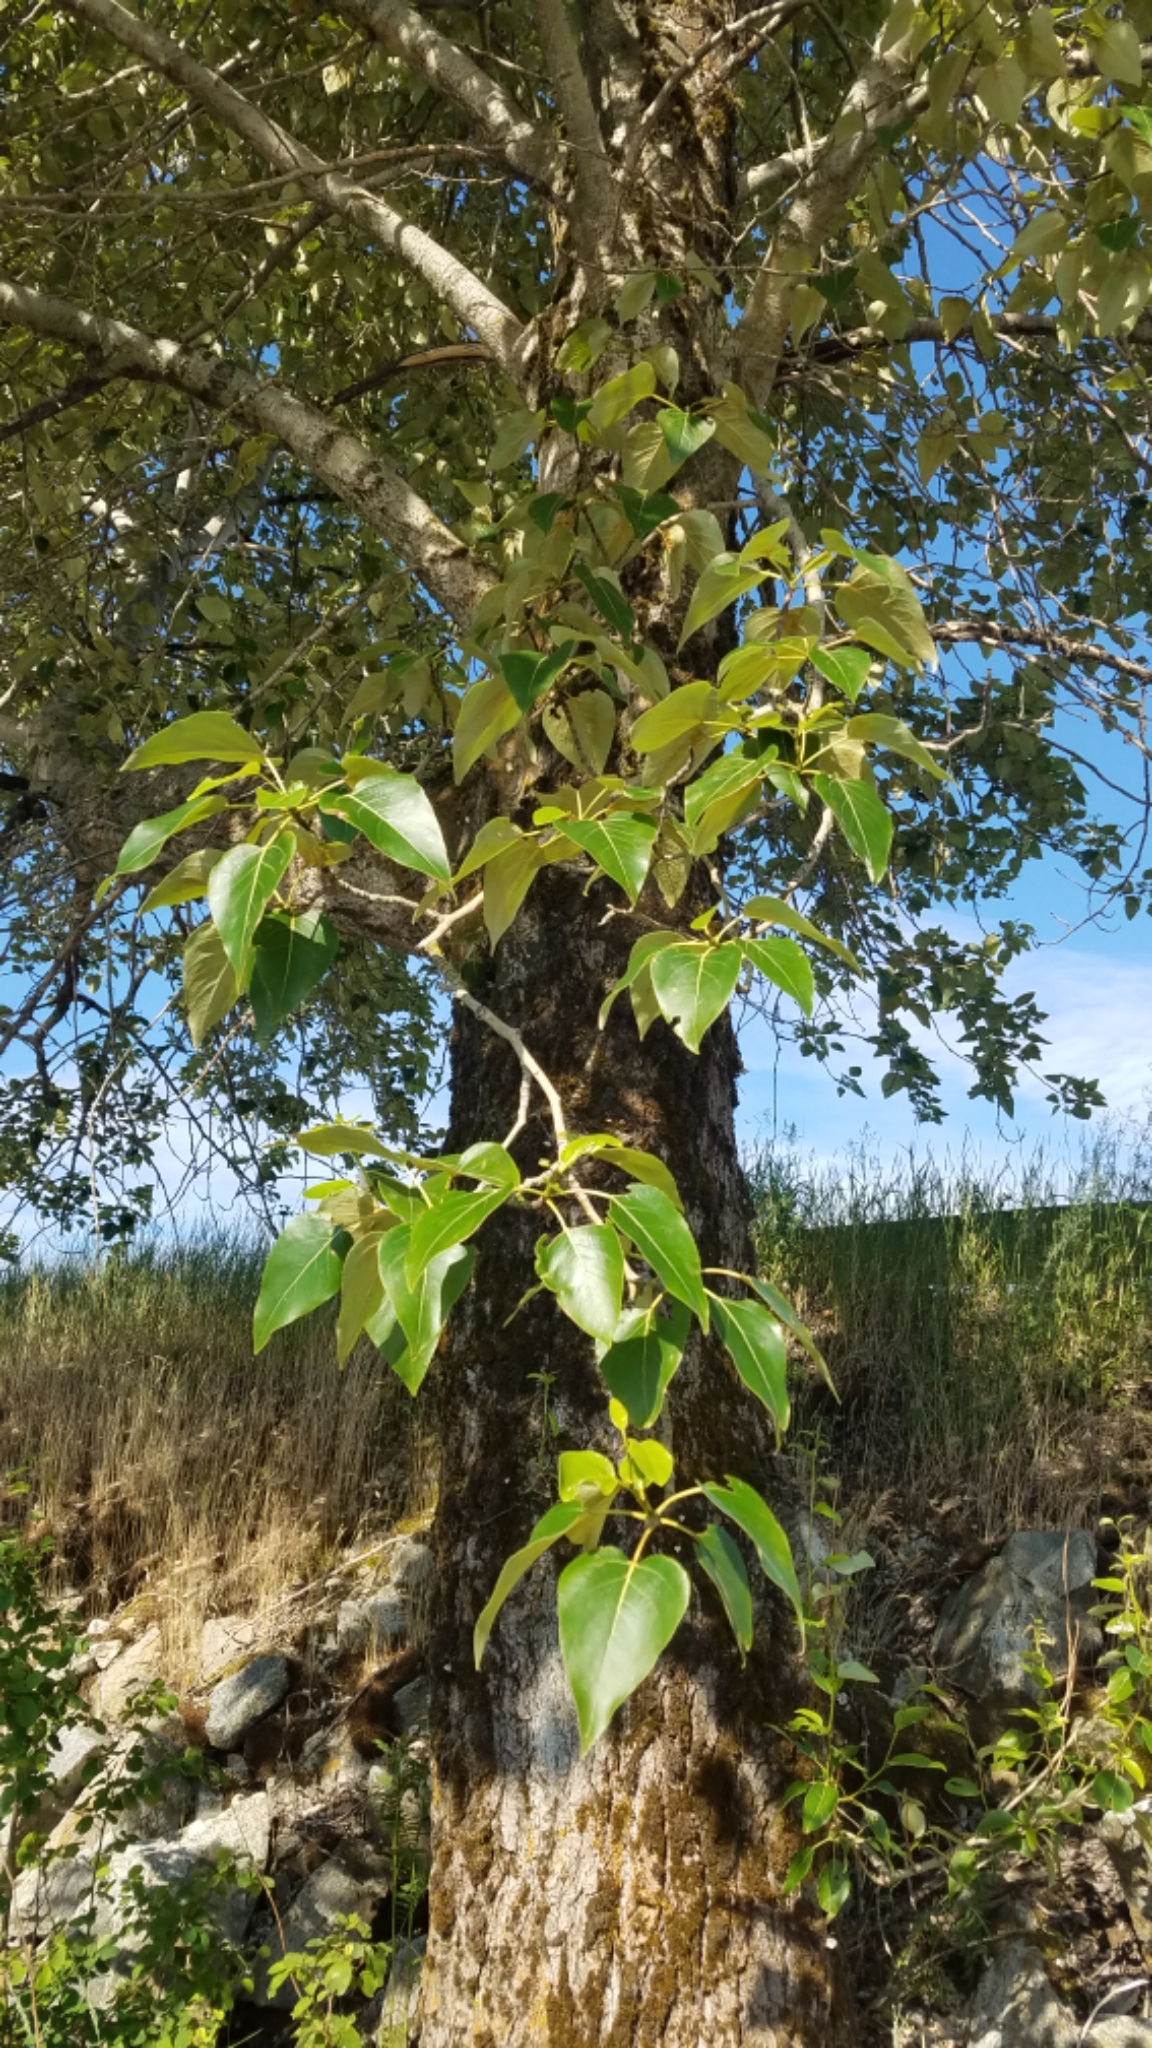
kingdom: Plantae
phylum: Tracheophyta
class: Magnoliopsida
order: Malpighiales
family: Salicaceae
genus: Populus
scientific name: Populus trichocarpa
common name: Black cottonwood
